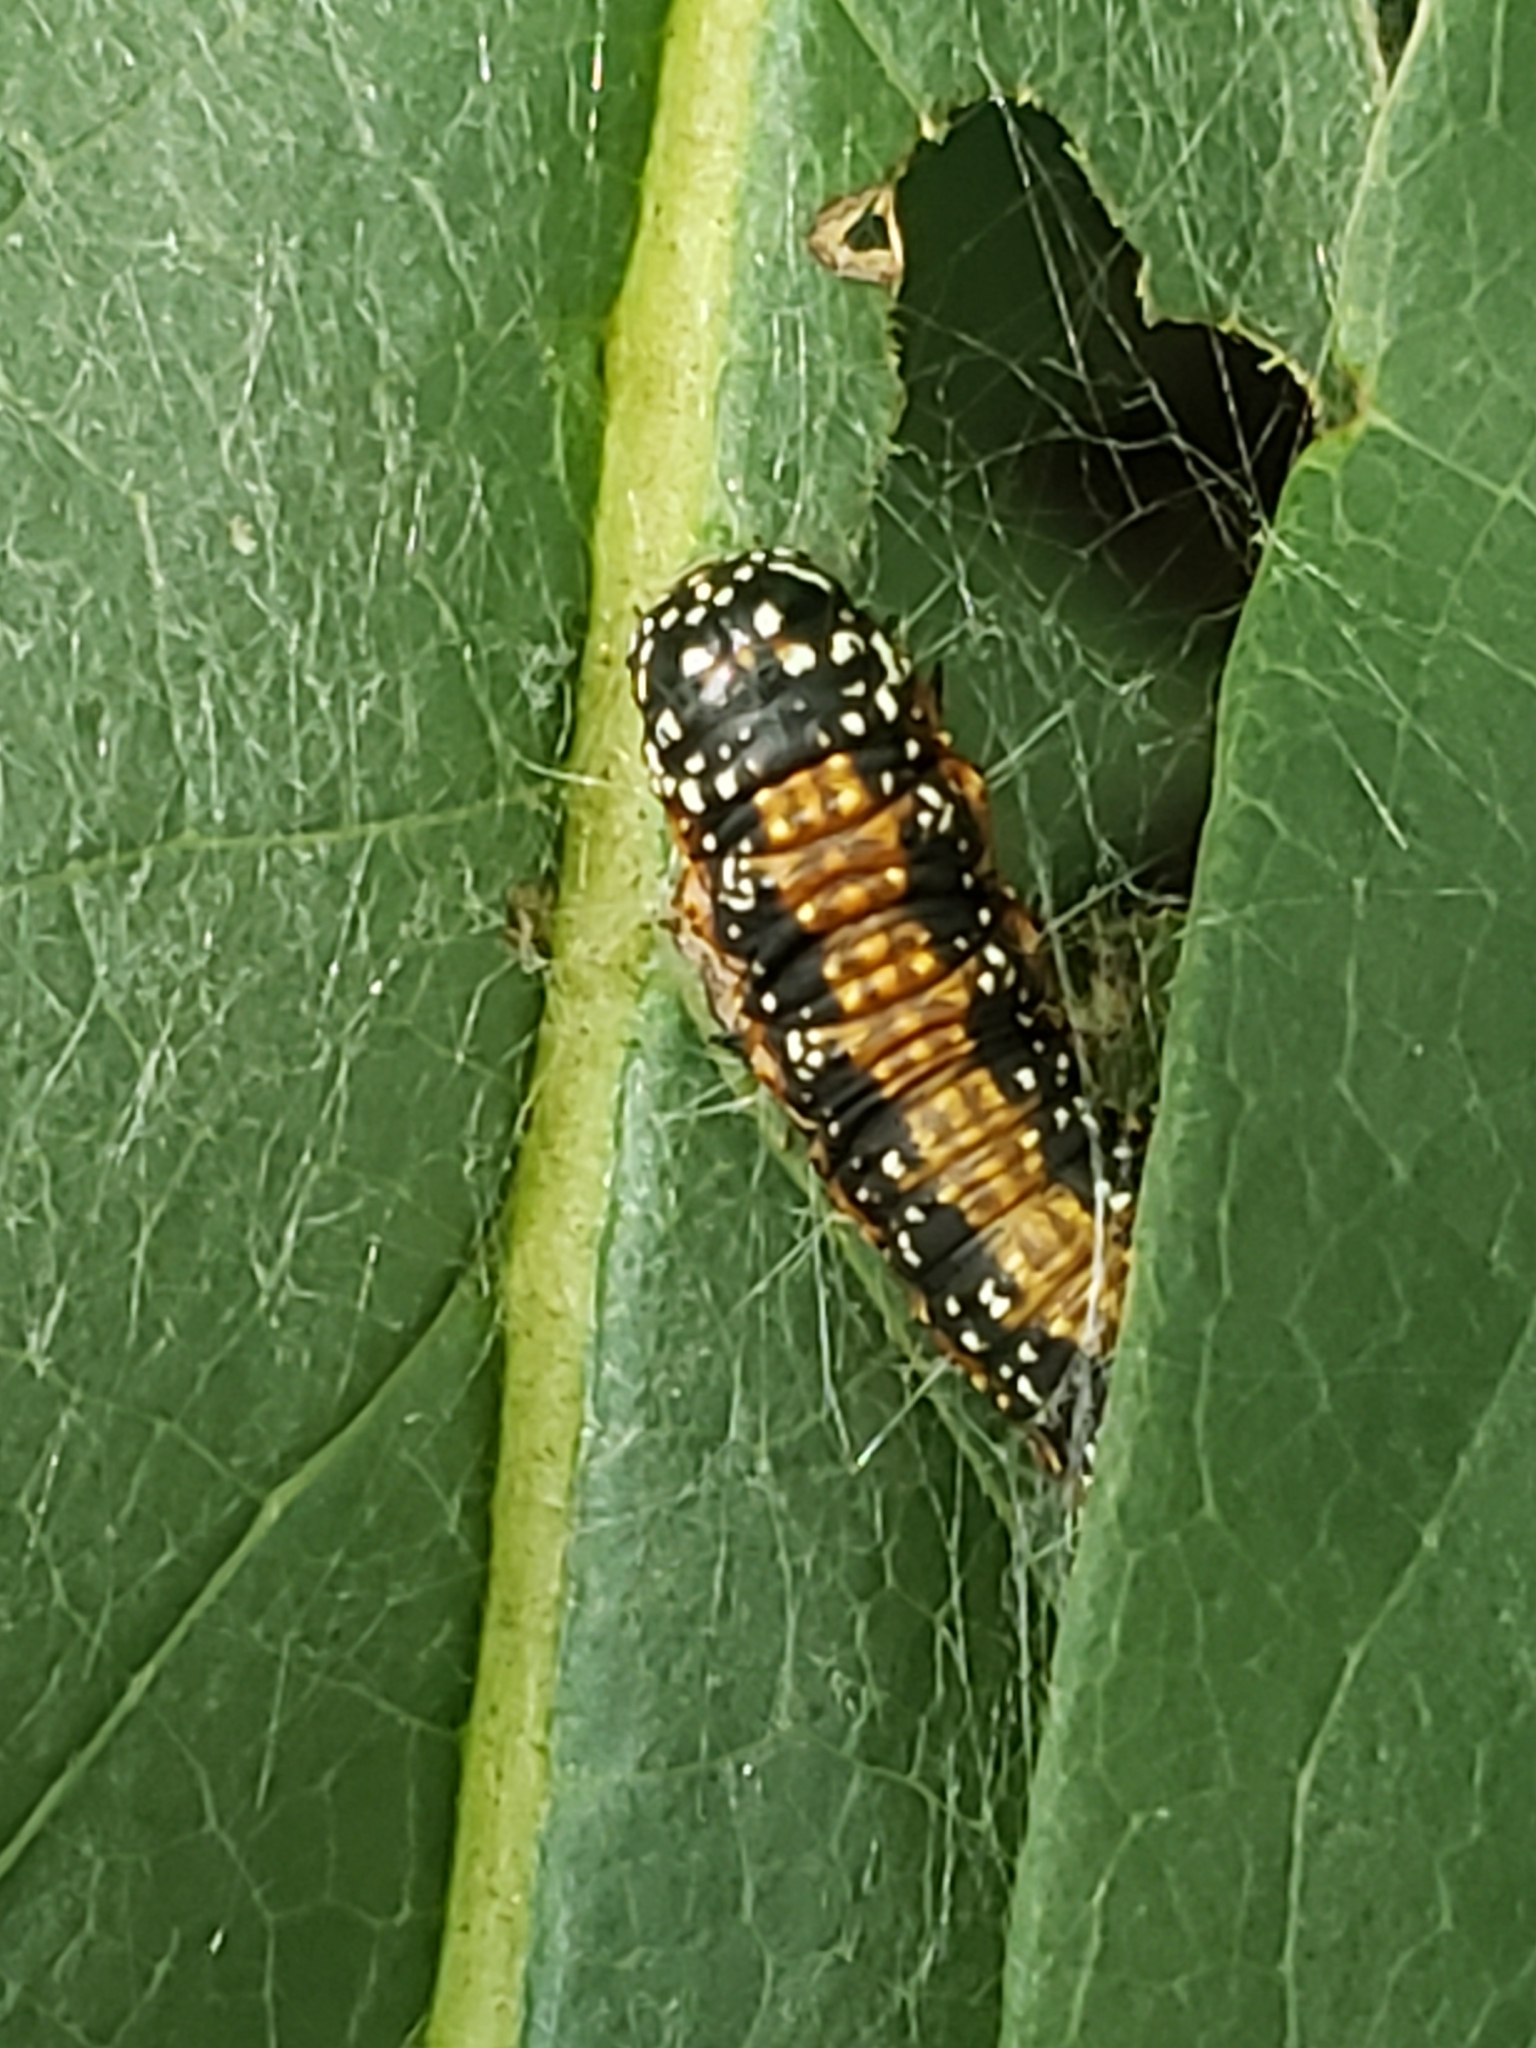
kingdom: Animalia
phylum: Arthropoda
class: Insecta
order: Lepidoptera
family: Pyralidae
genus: Omphalocera
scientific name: Omphalocera munroei
